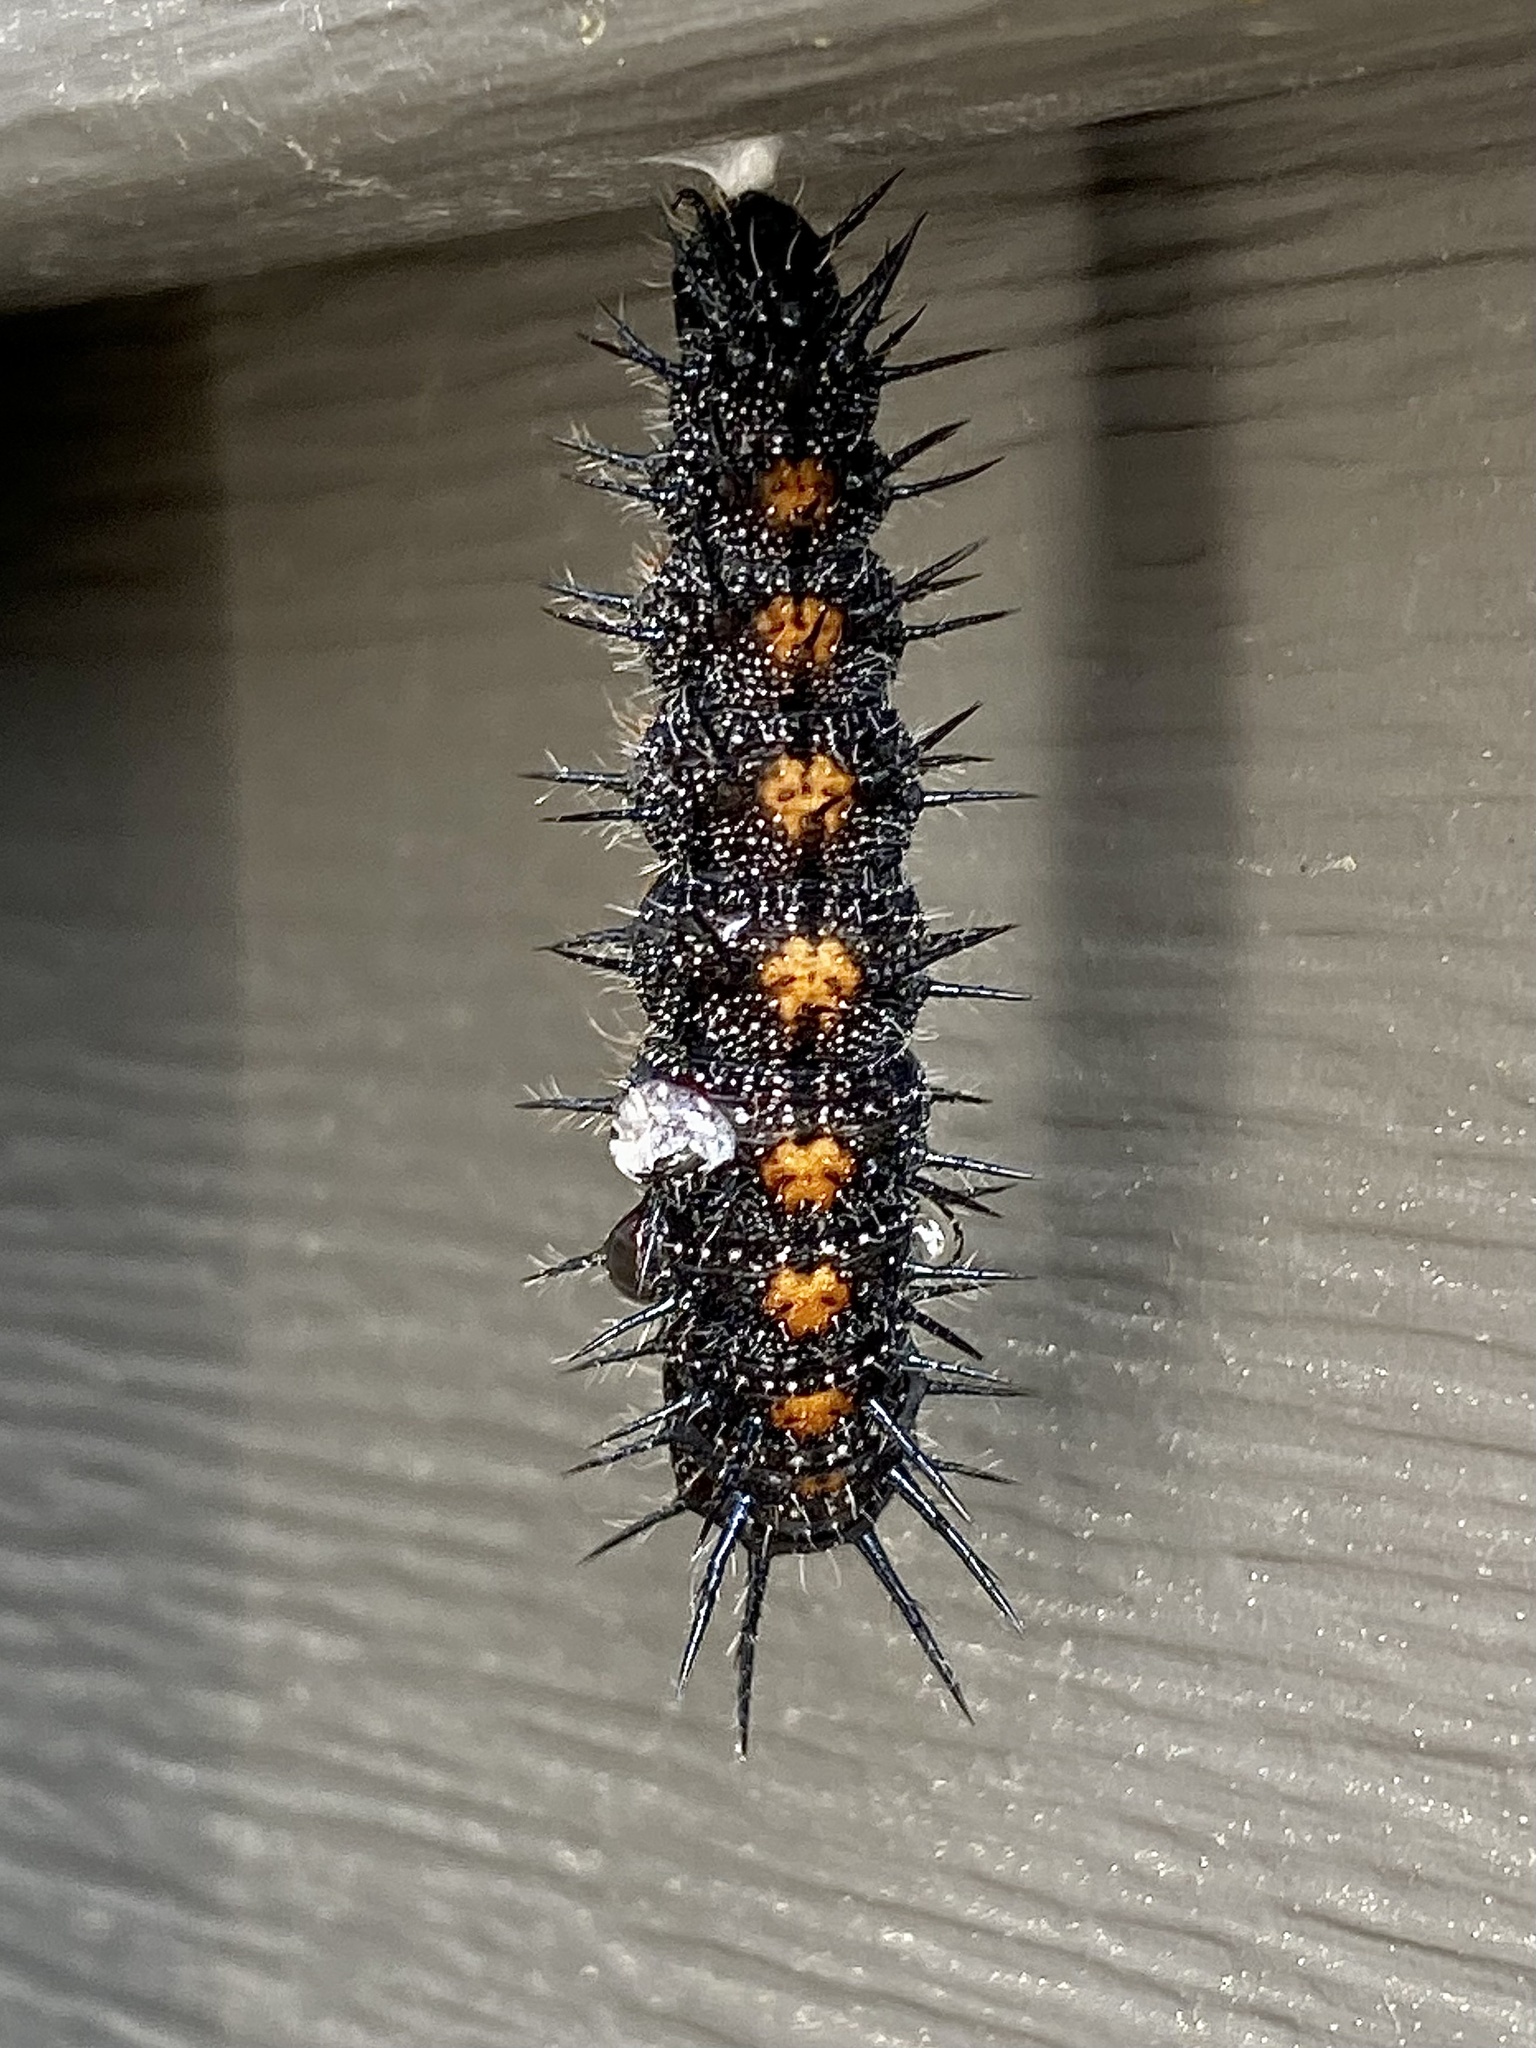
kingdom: Animalia
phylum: Arthropoda
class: Insecta
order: Lepidoptera
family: Nymphalidae
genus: Nymphalis
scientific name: Nymphalis antiopa
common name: Camberwell beauty
